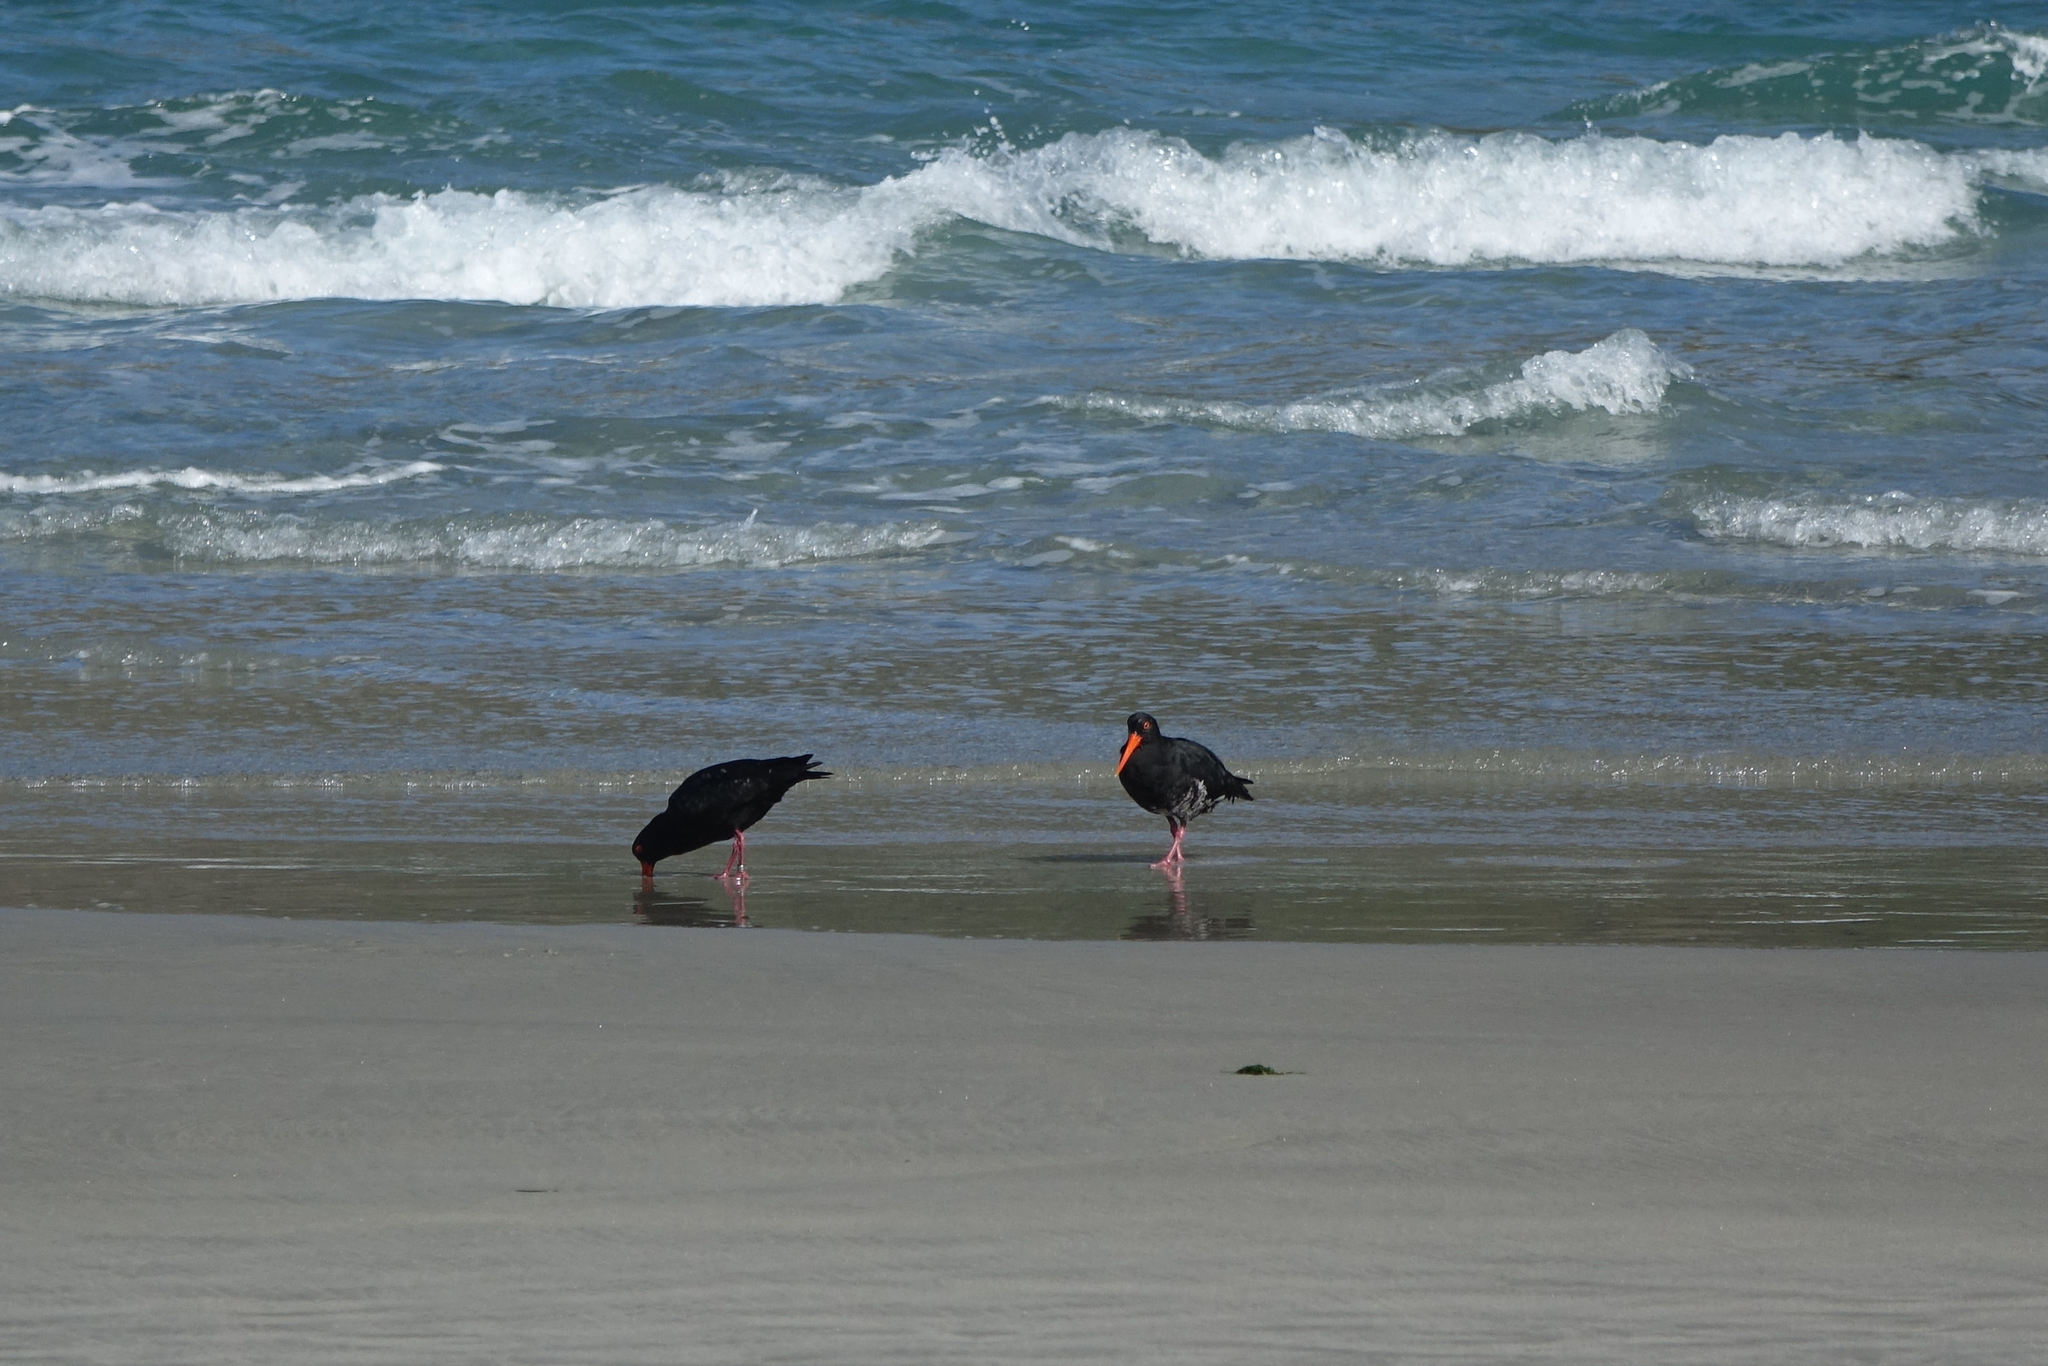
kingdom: Animalia
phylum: Chordata
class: Aves
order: Charadriiformes
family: Haematopodidae
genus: Haematopus
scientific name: Haematopus unicolor
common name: Variable oystercatcher
